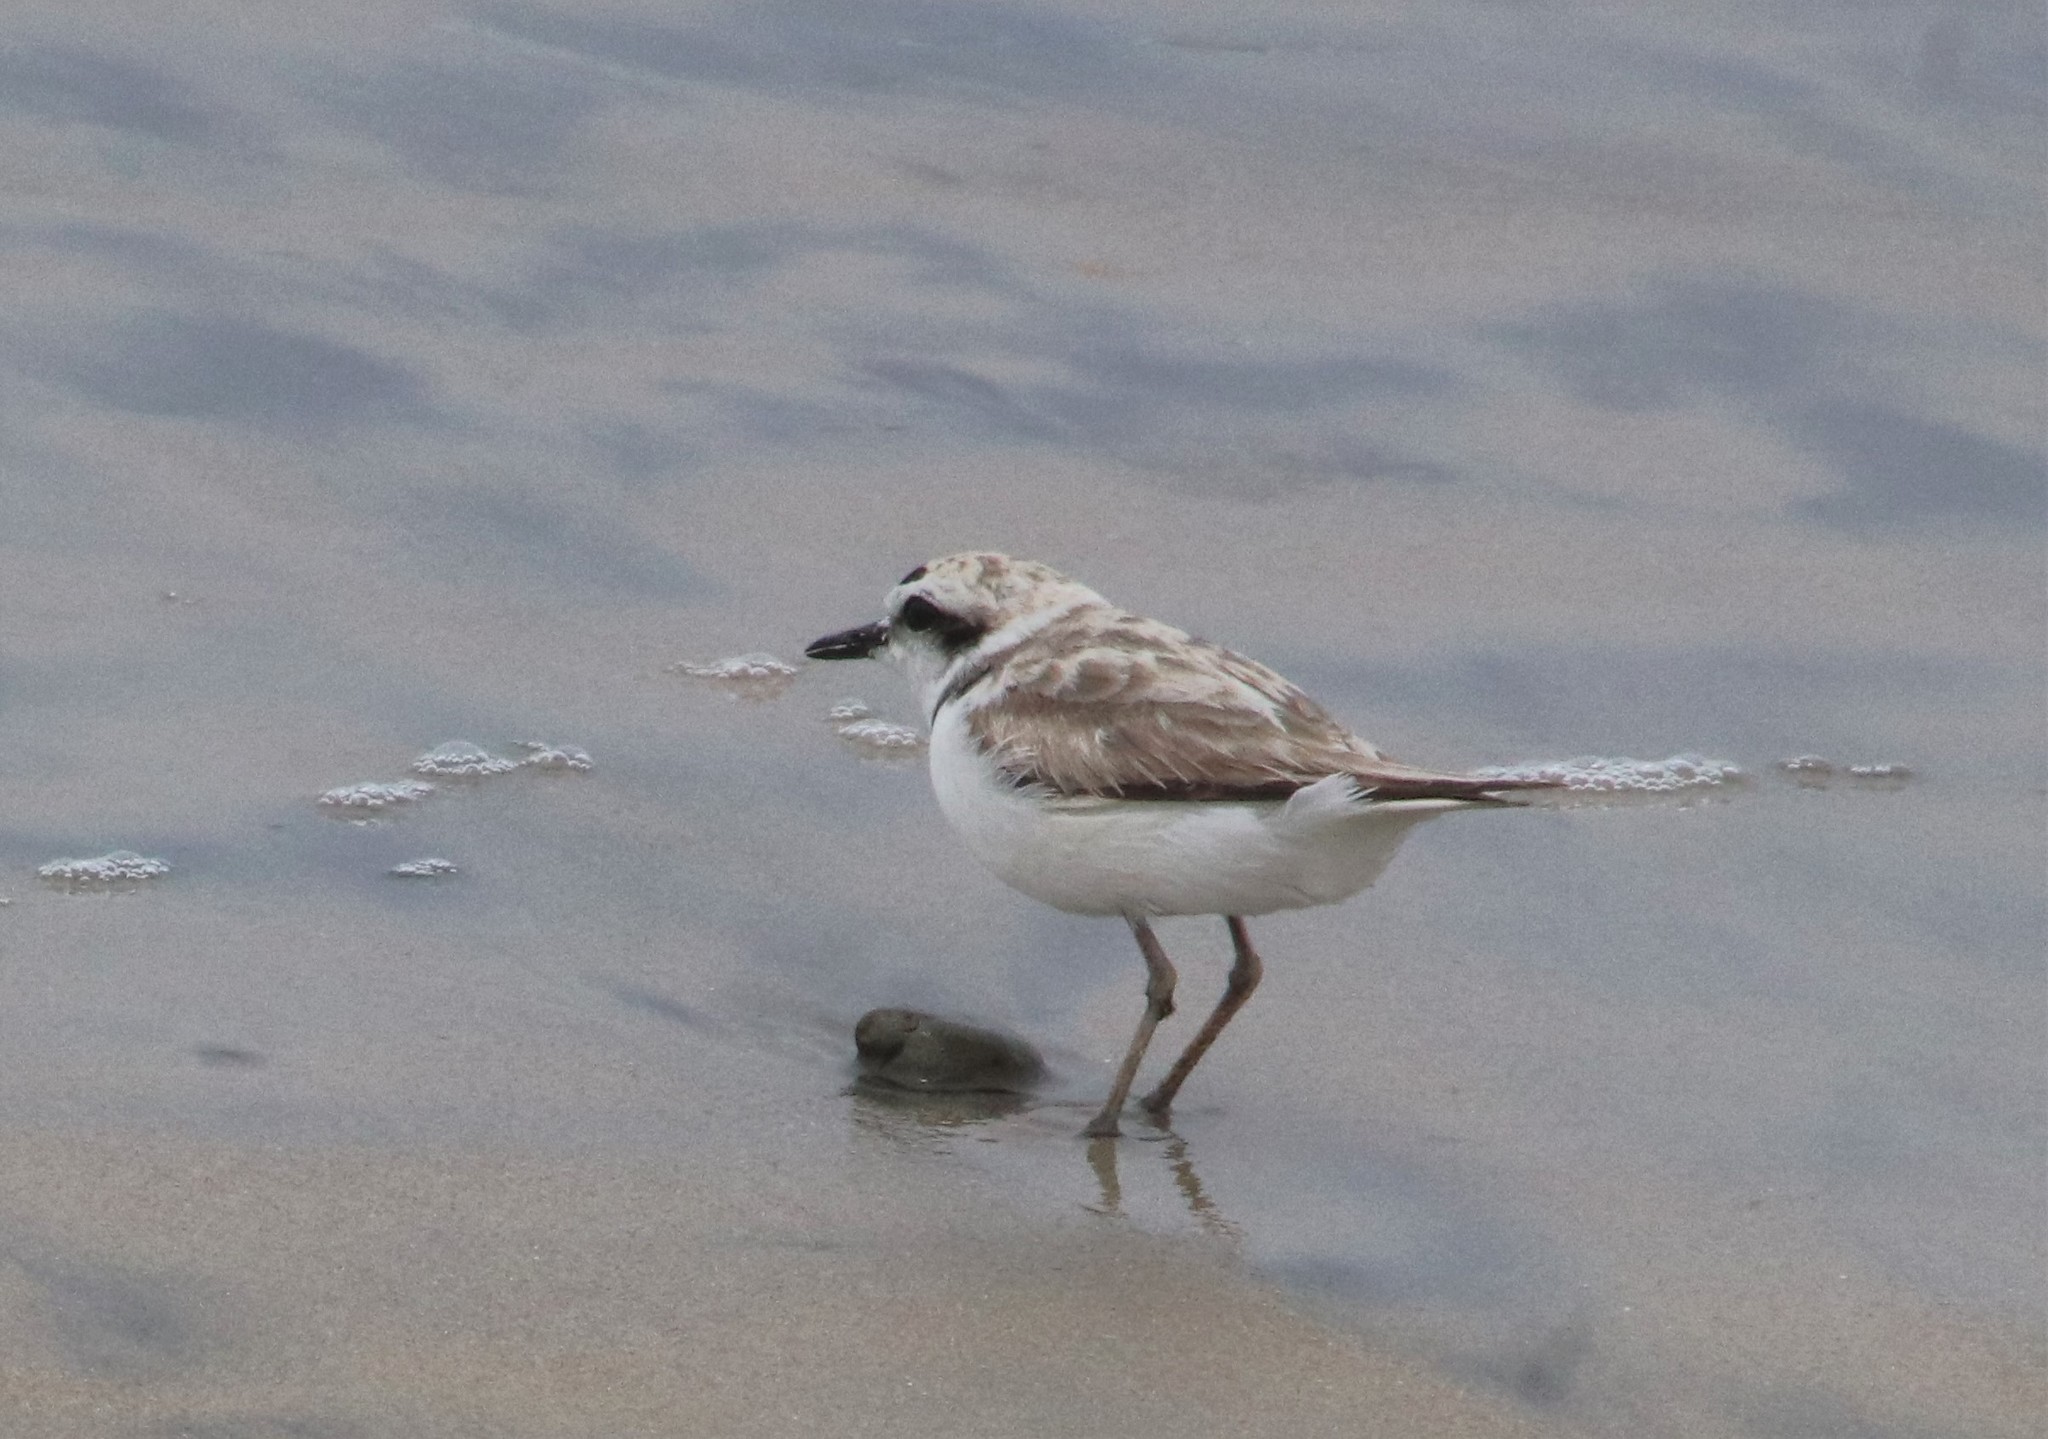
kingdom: Animalia
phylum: Chordata
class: Aves
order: Charadriiformes
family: Charadriidae
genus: Anarhynchus
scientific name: Anarhynchus
